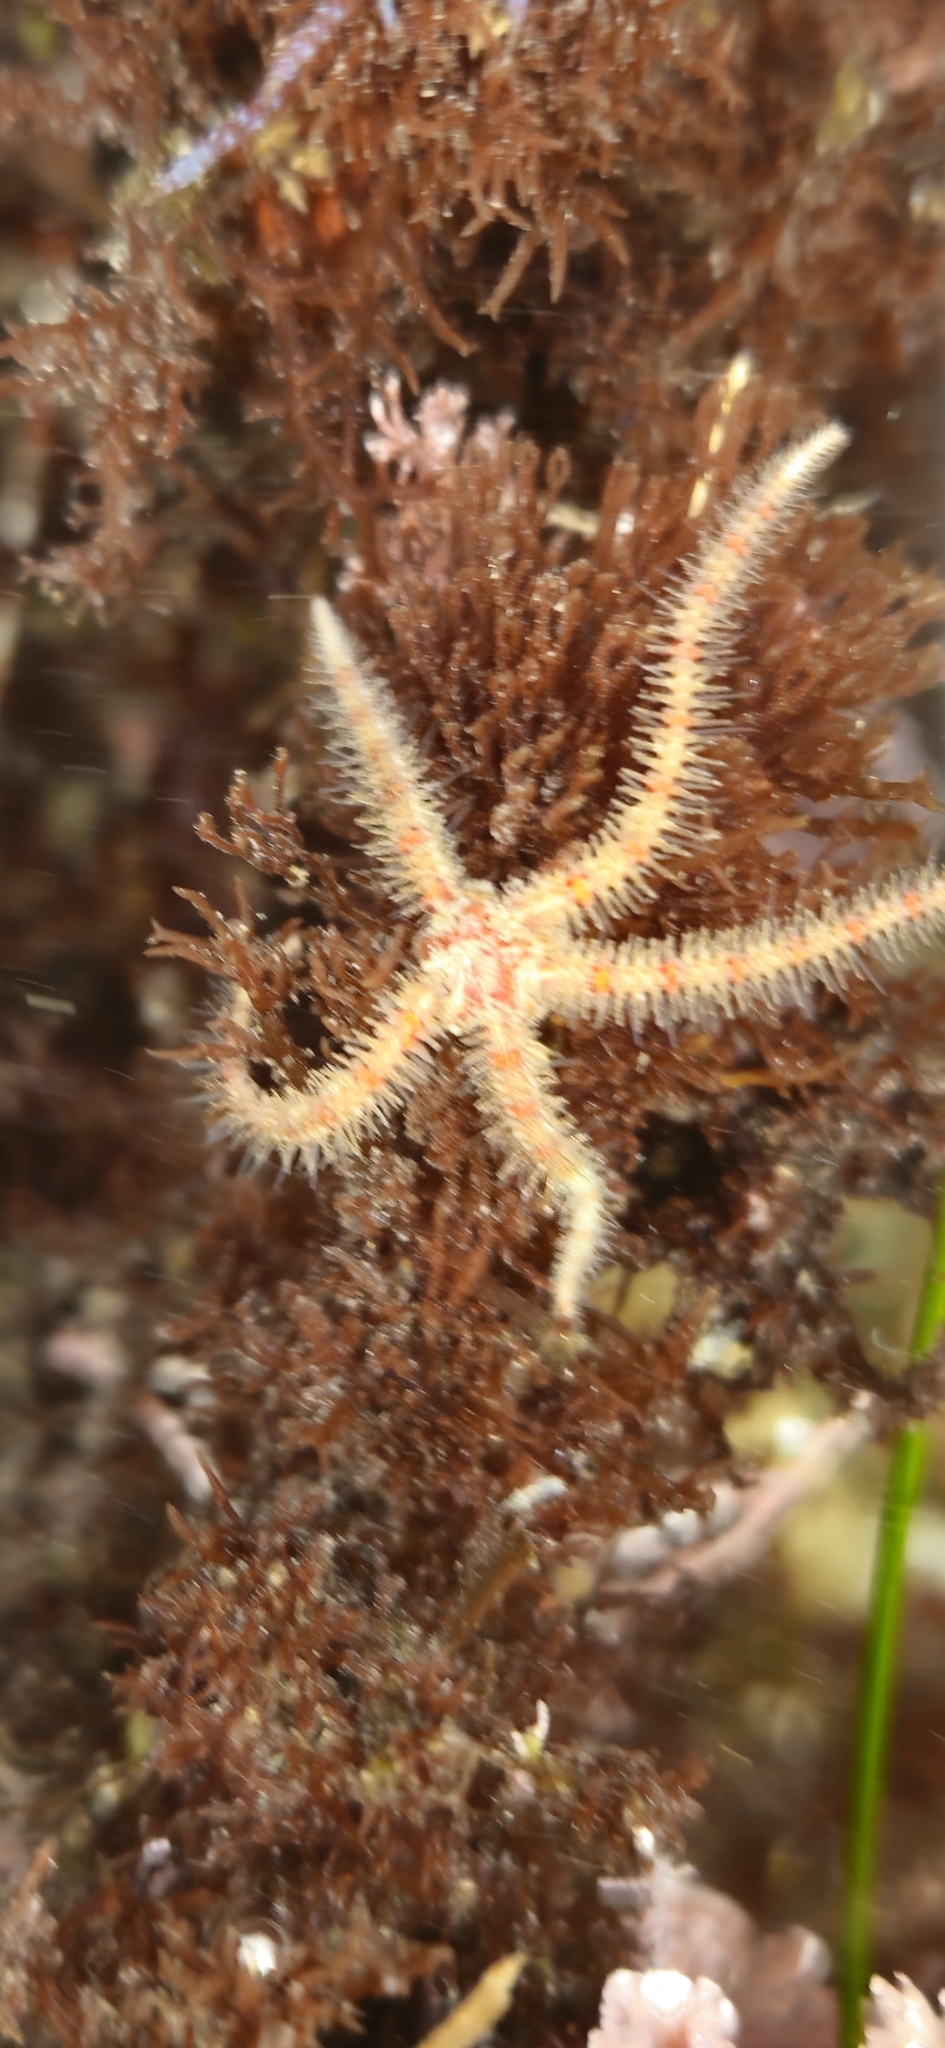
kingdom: Animalia
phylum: Echinodermata
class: Ophiuroidea
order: Amphilepidida
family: Ophiotrichidae
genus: Ophiothrix
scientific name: Ophiothrix spiculata
